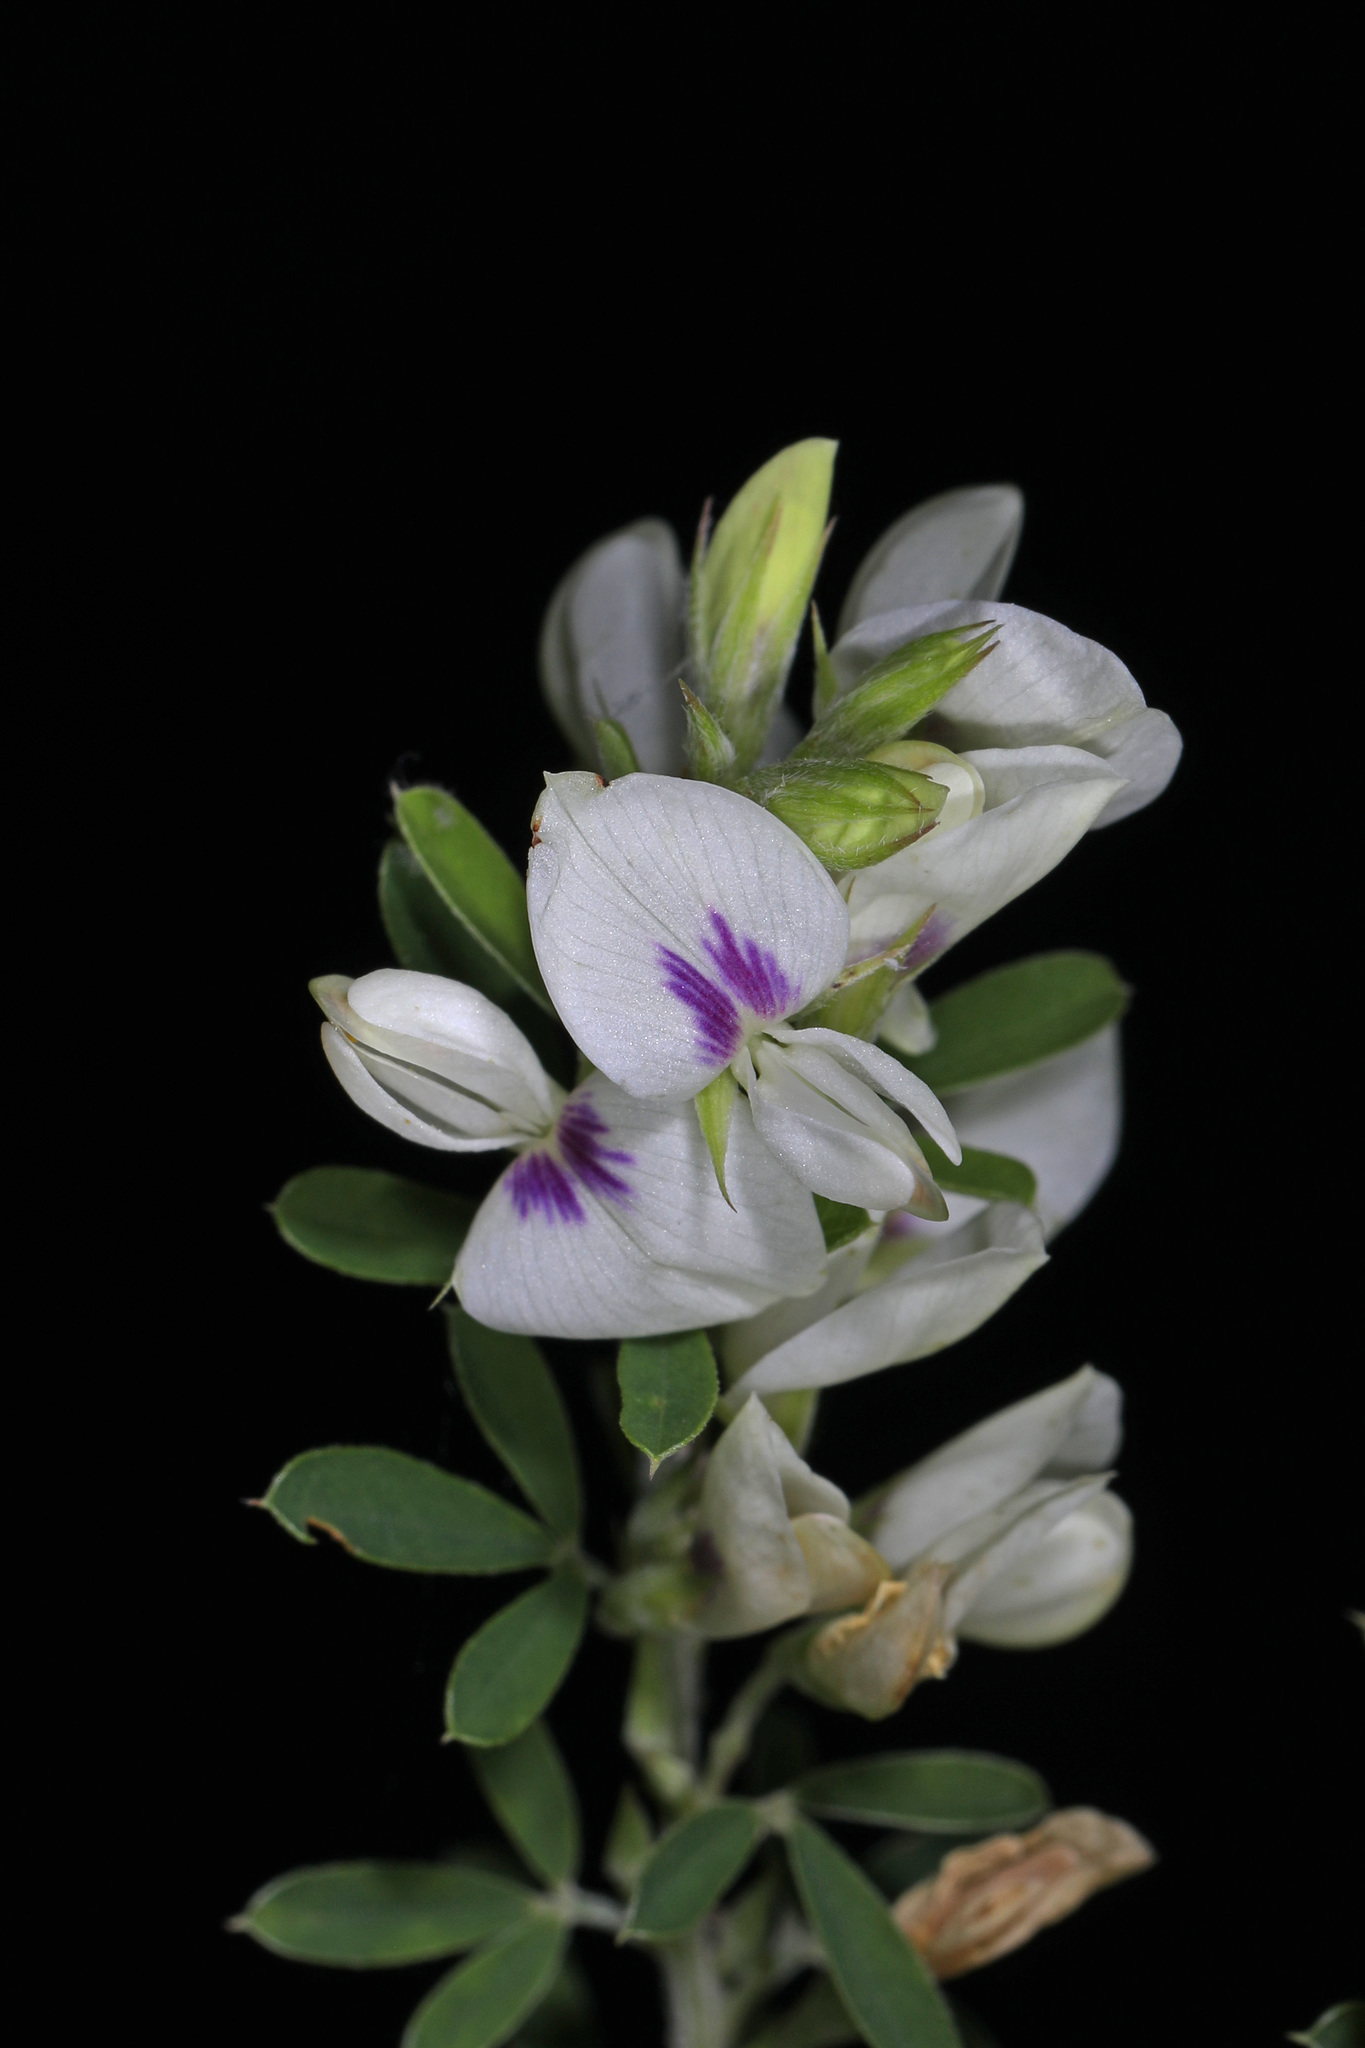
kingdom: Plantae
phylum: Tracheophyta
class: Magnoliopsida
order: Fabales
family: Fabaceae
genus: Lespedeza
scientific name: Lespedeza cuneata
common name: Chinese bush-clover
